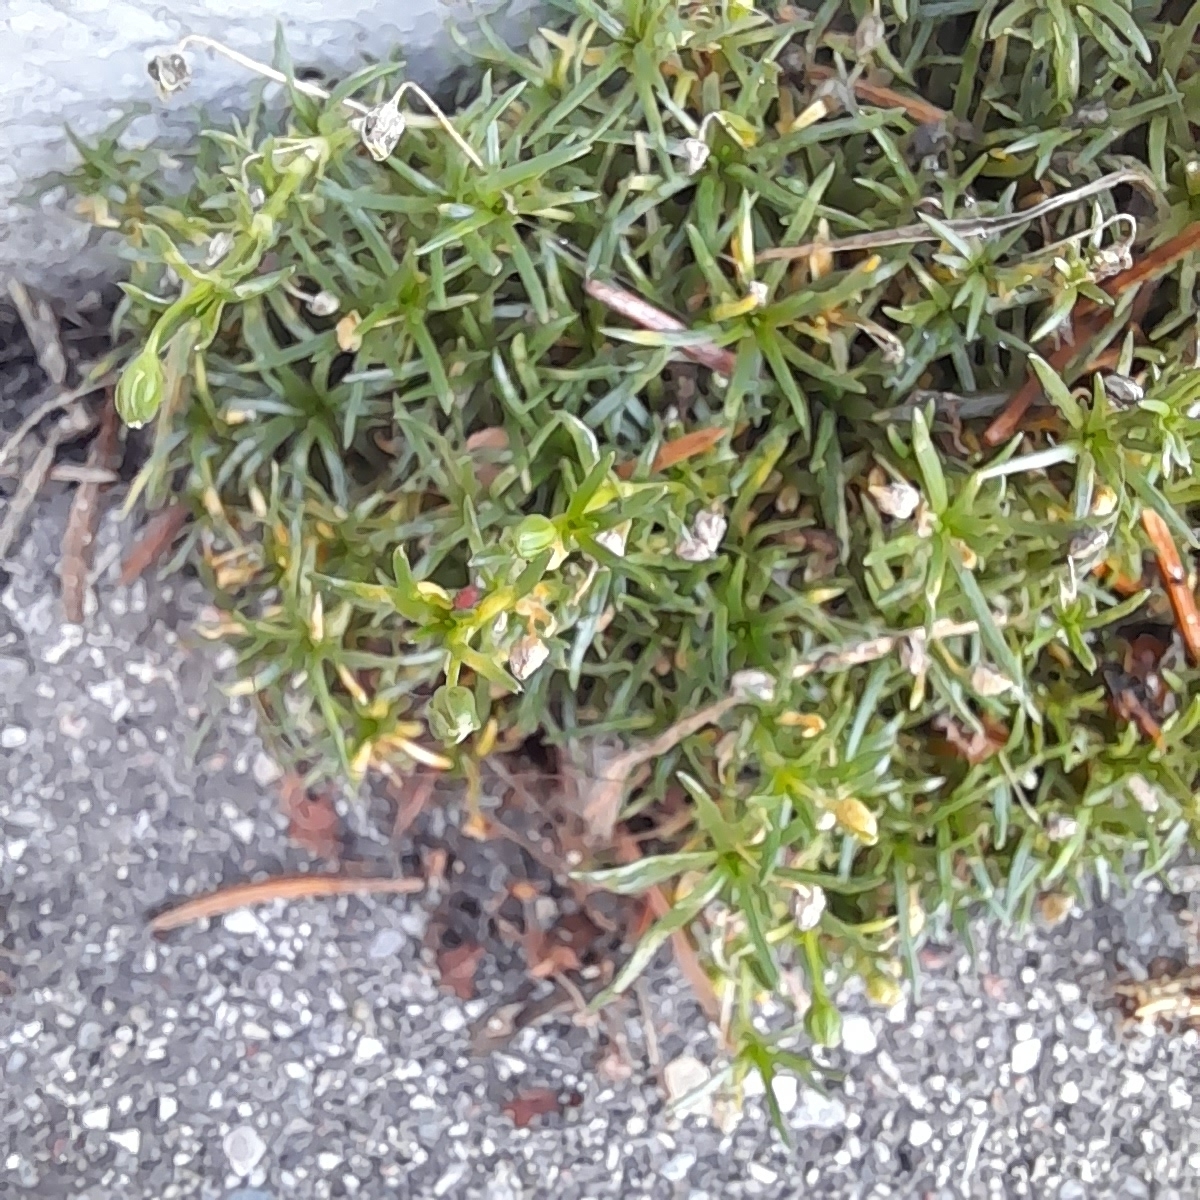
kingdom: Plantae
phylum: Tracheophyta
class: Magnoliopsida
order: Caryophyllales
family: Caryophyllaceae
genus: Sagina
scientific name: Sagina procumbens
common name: Procumbent pearlwort
